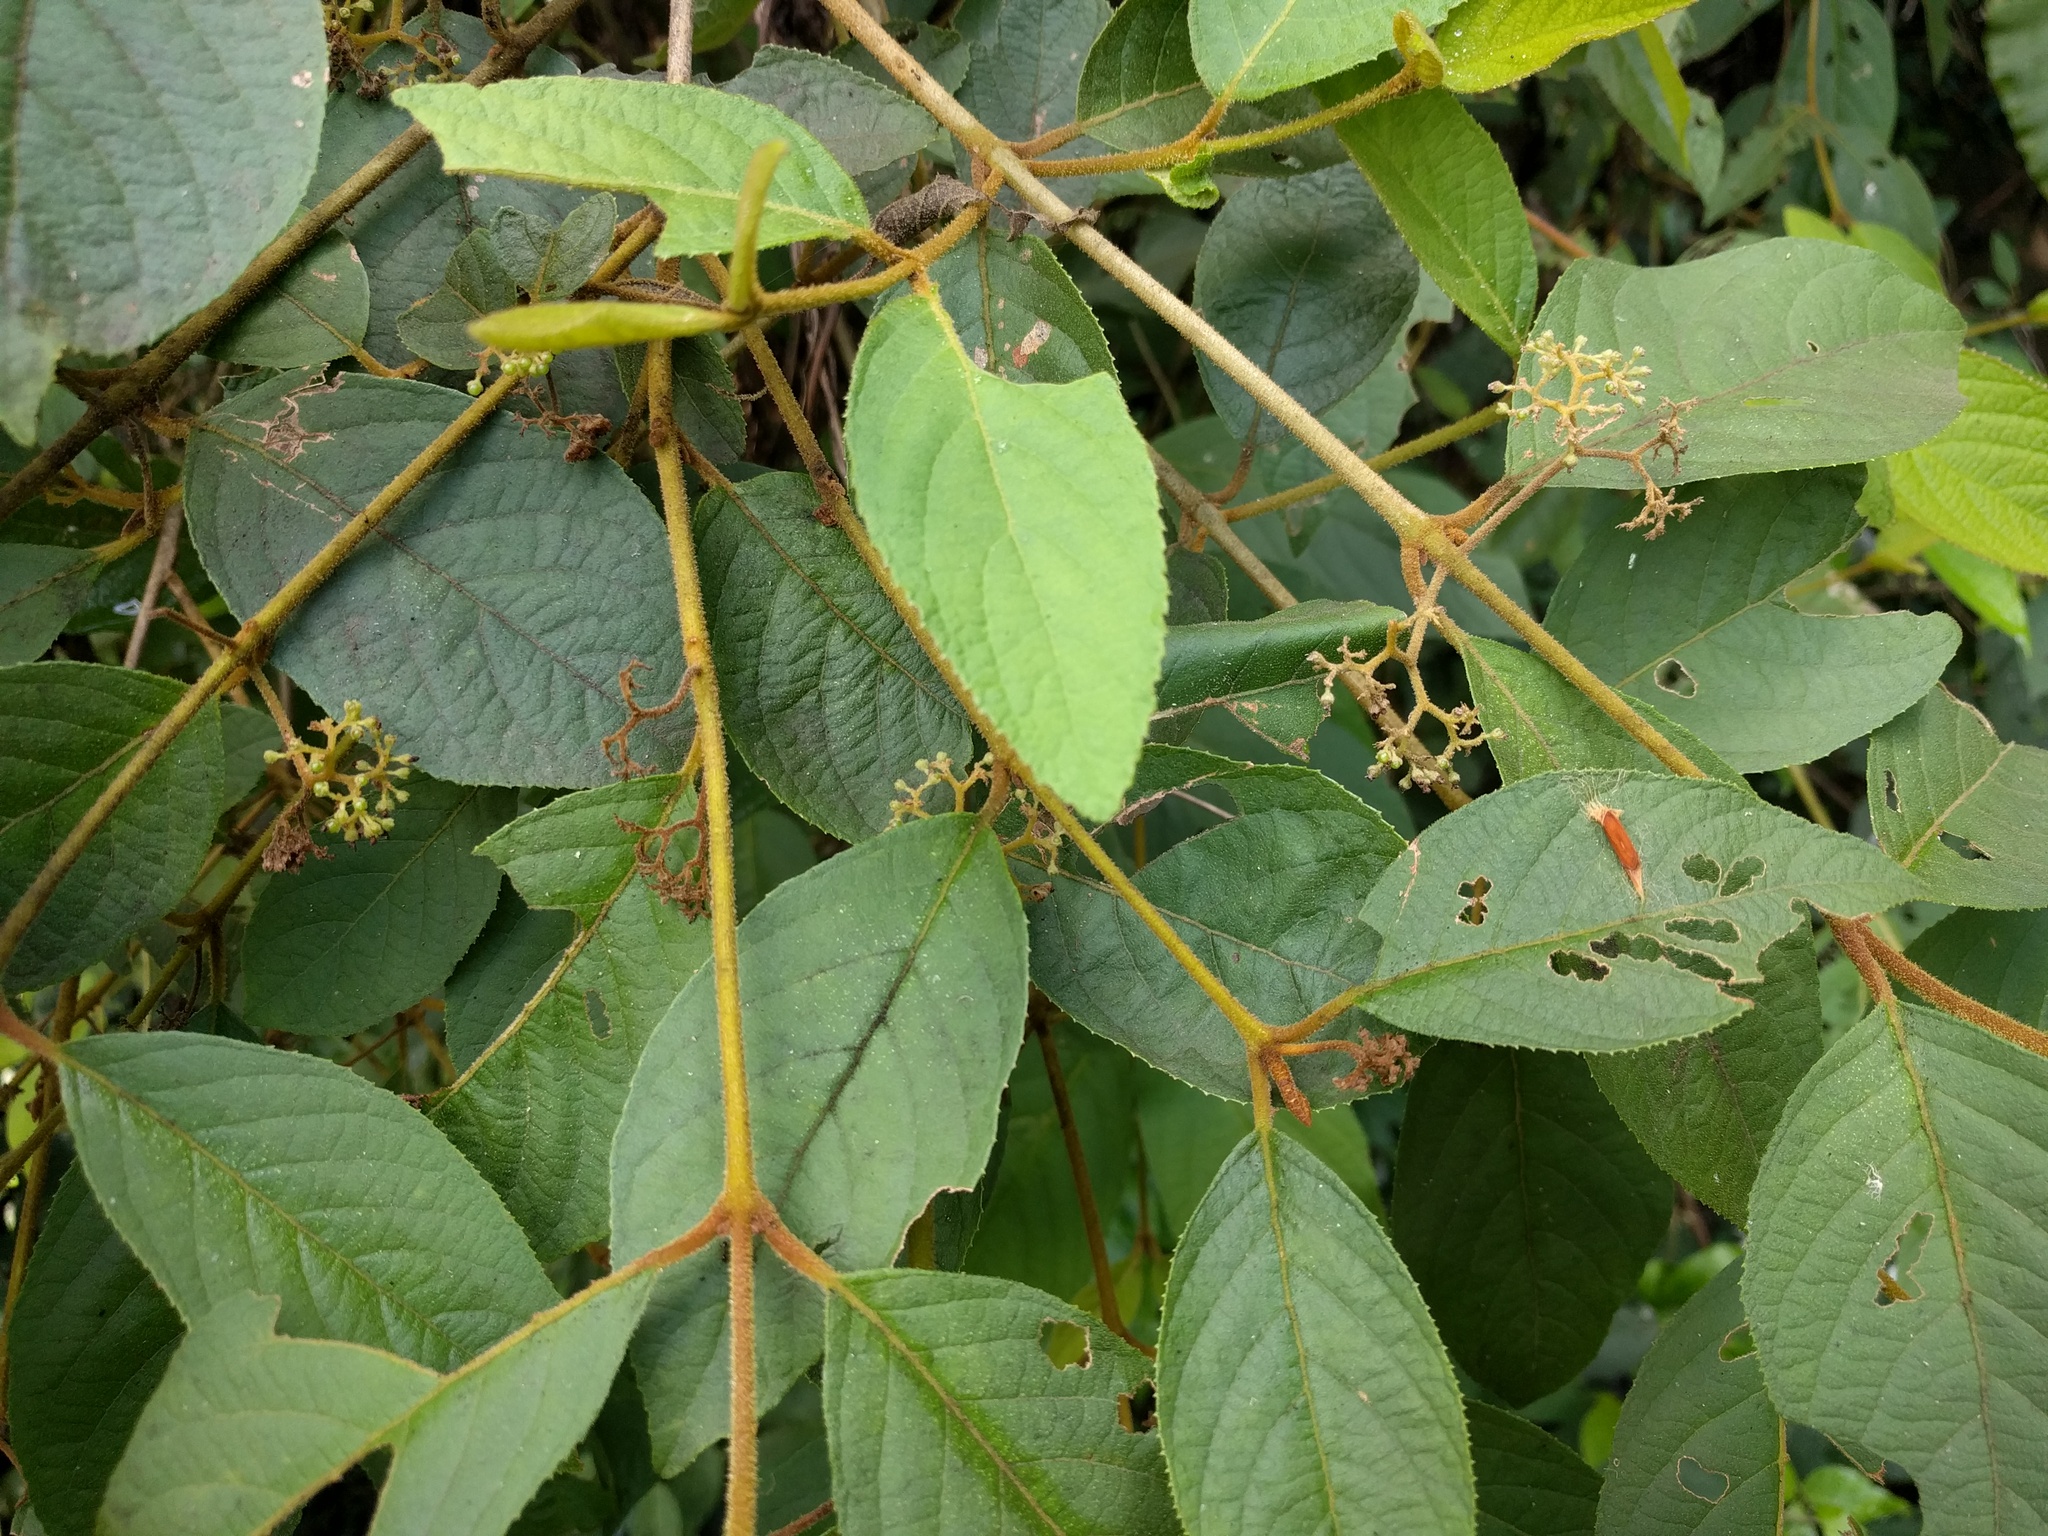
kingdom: Plantae
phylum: Tracheophyta
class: Magnoliopsida
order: Lamiales
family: Lamiaceae
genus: Callicarpa
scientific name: Callicarpa pedunculata
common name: Velvetleaf
